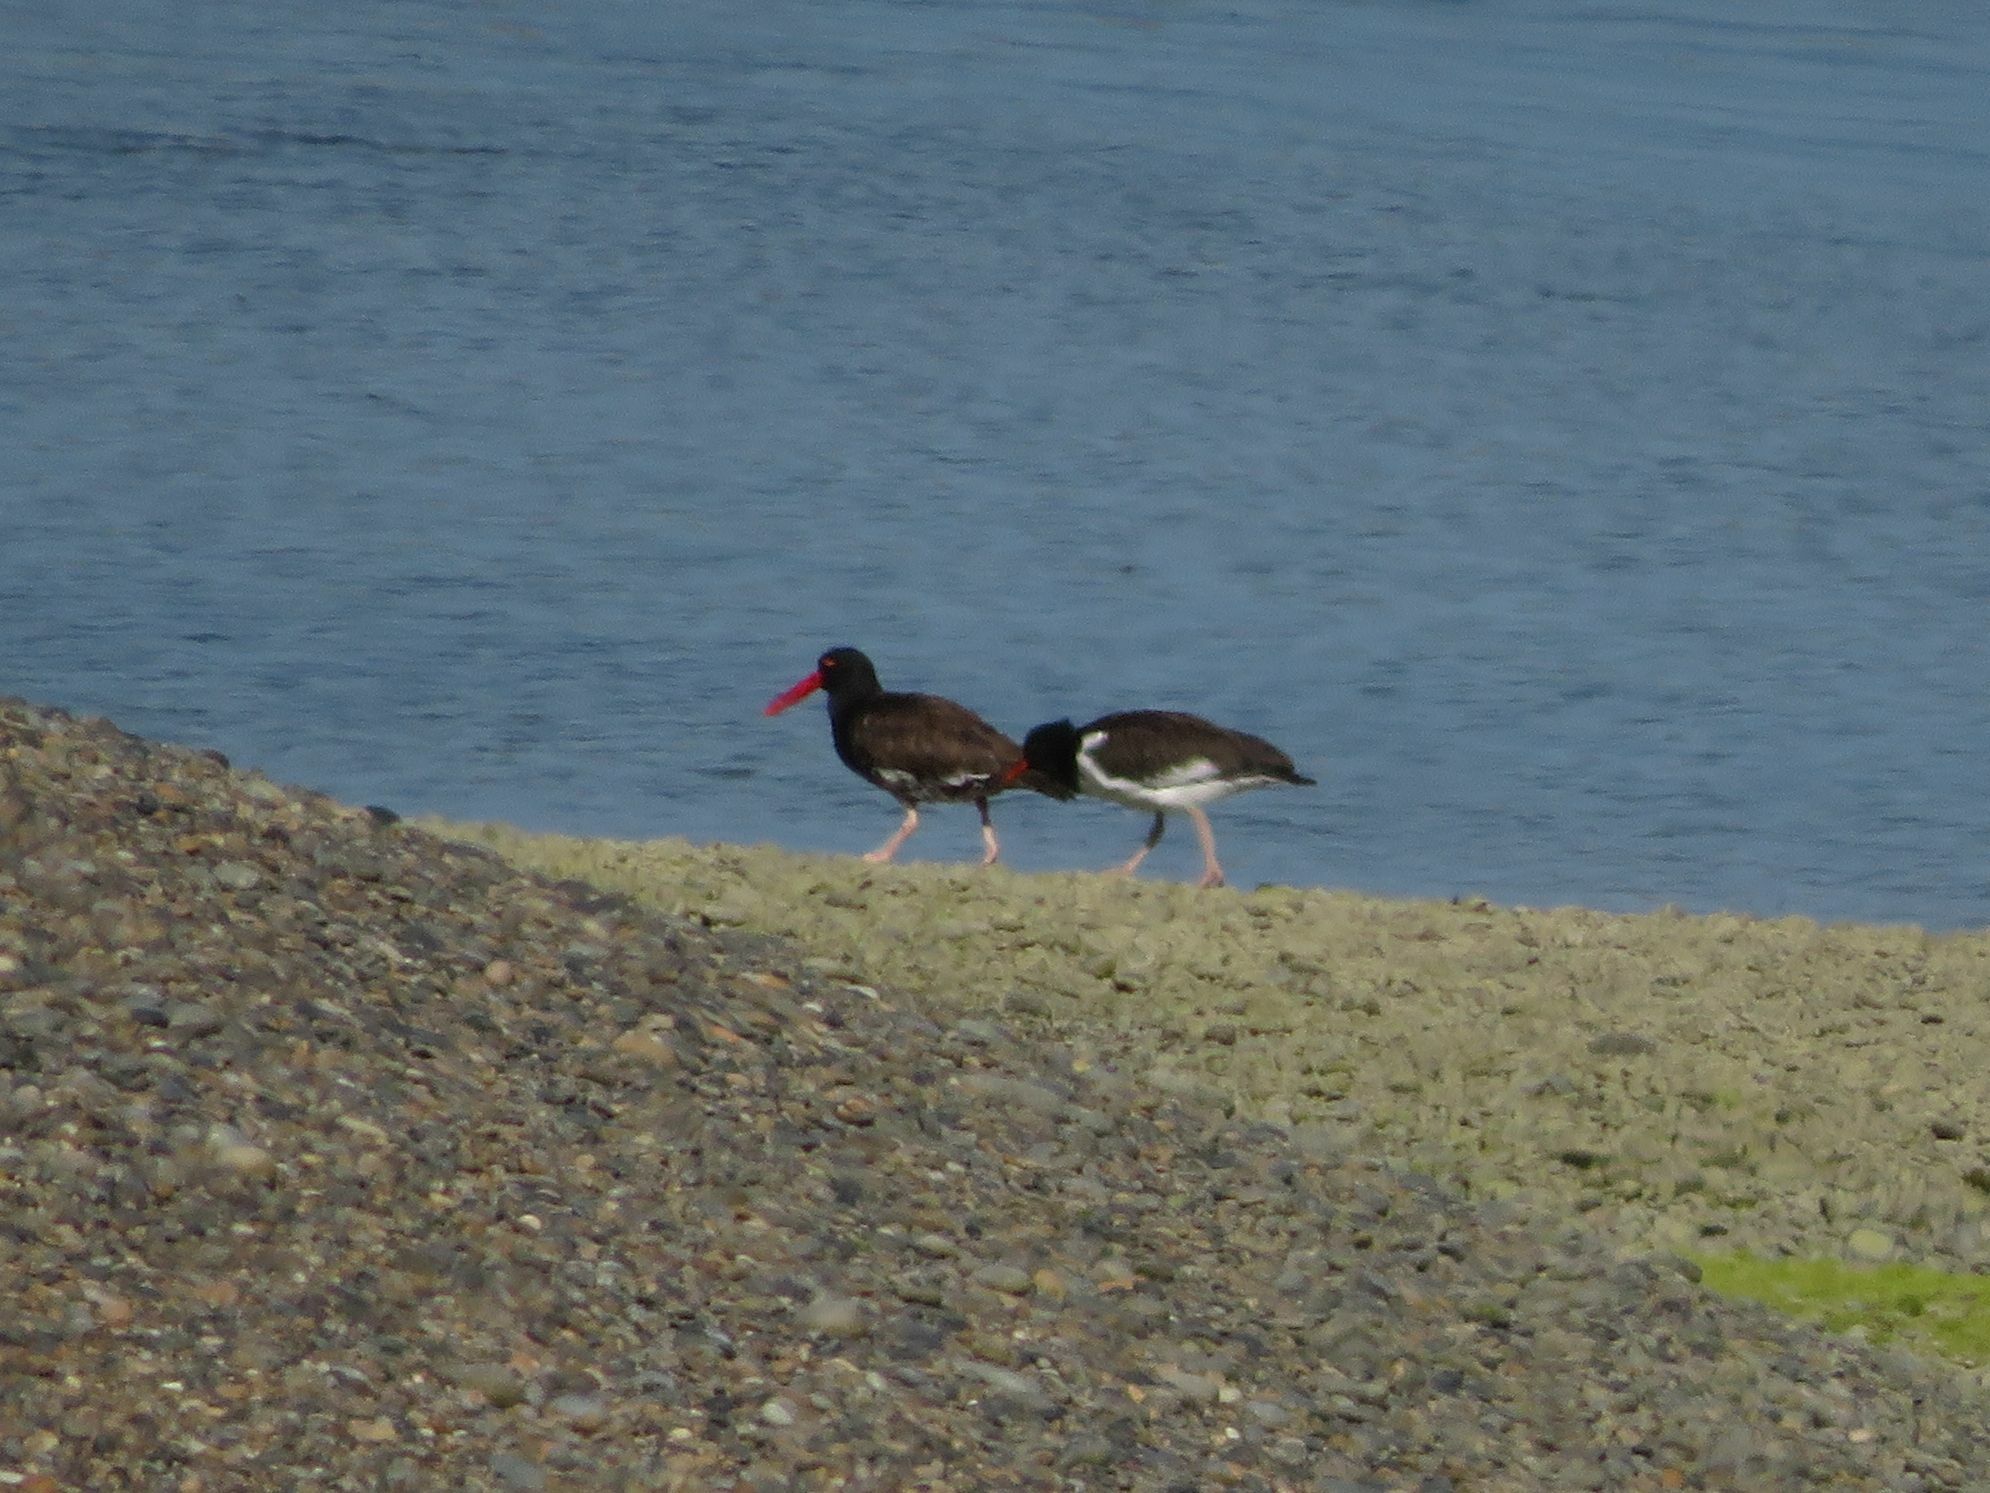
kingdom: Animalia
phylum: Chordata
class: Aves
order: Charadriiformes
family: Haematopodidae
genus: Haematopus
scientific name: Haematopus palliatus
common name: American oystercatcher
